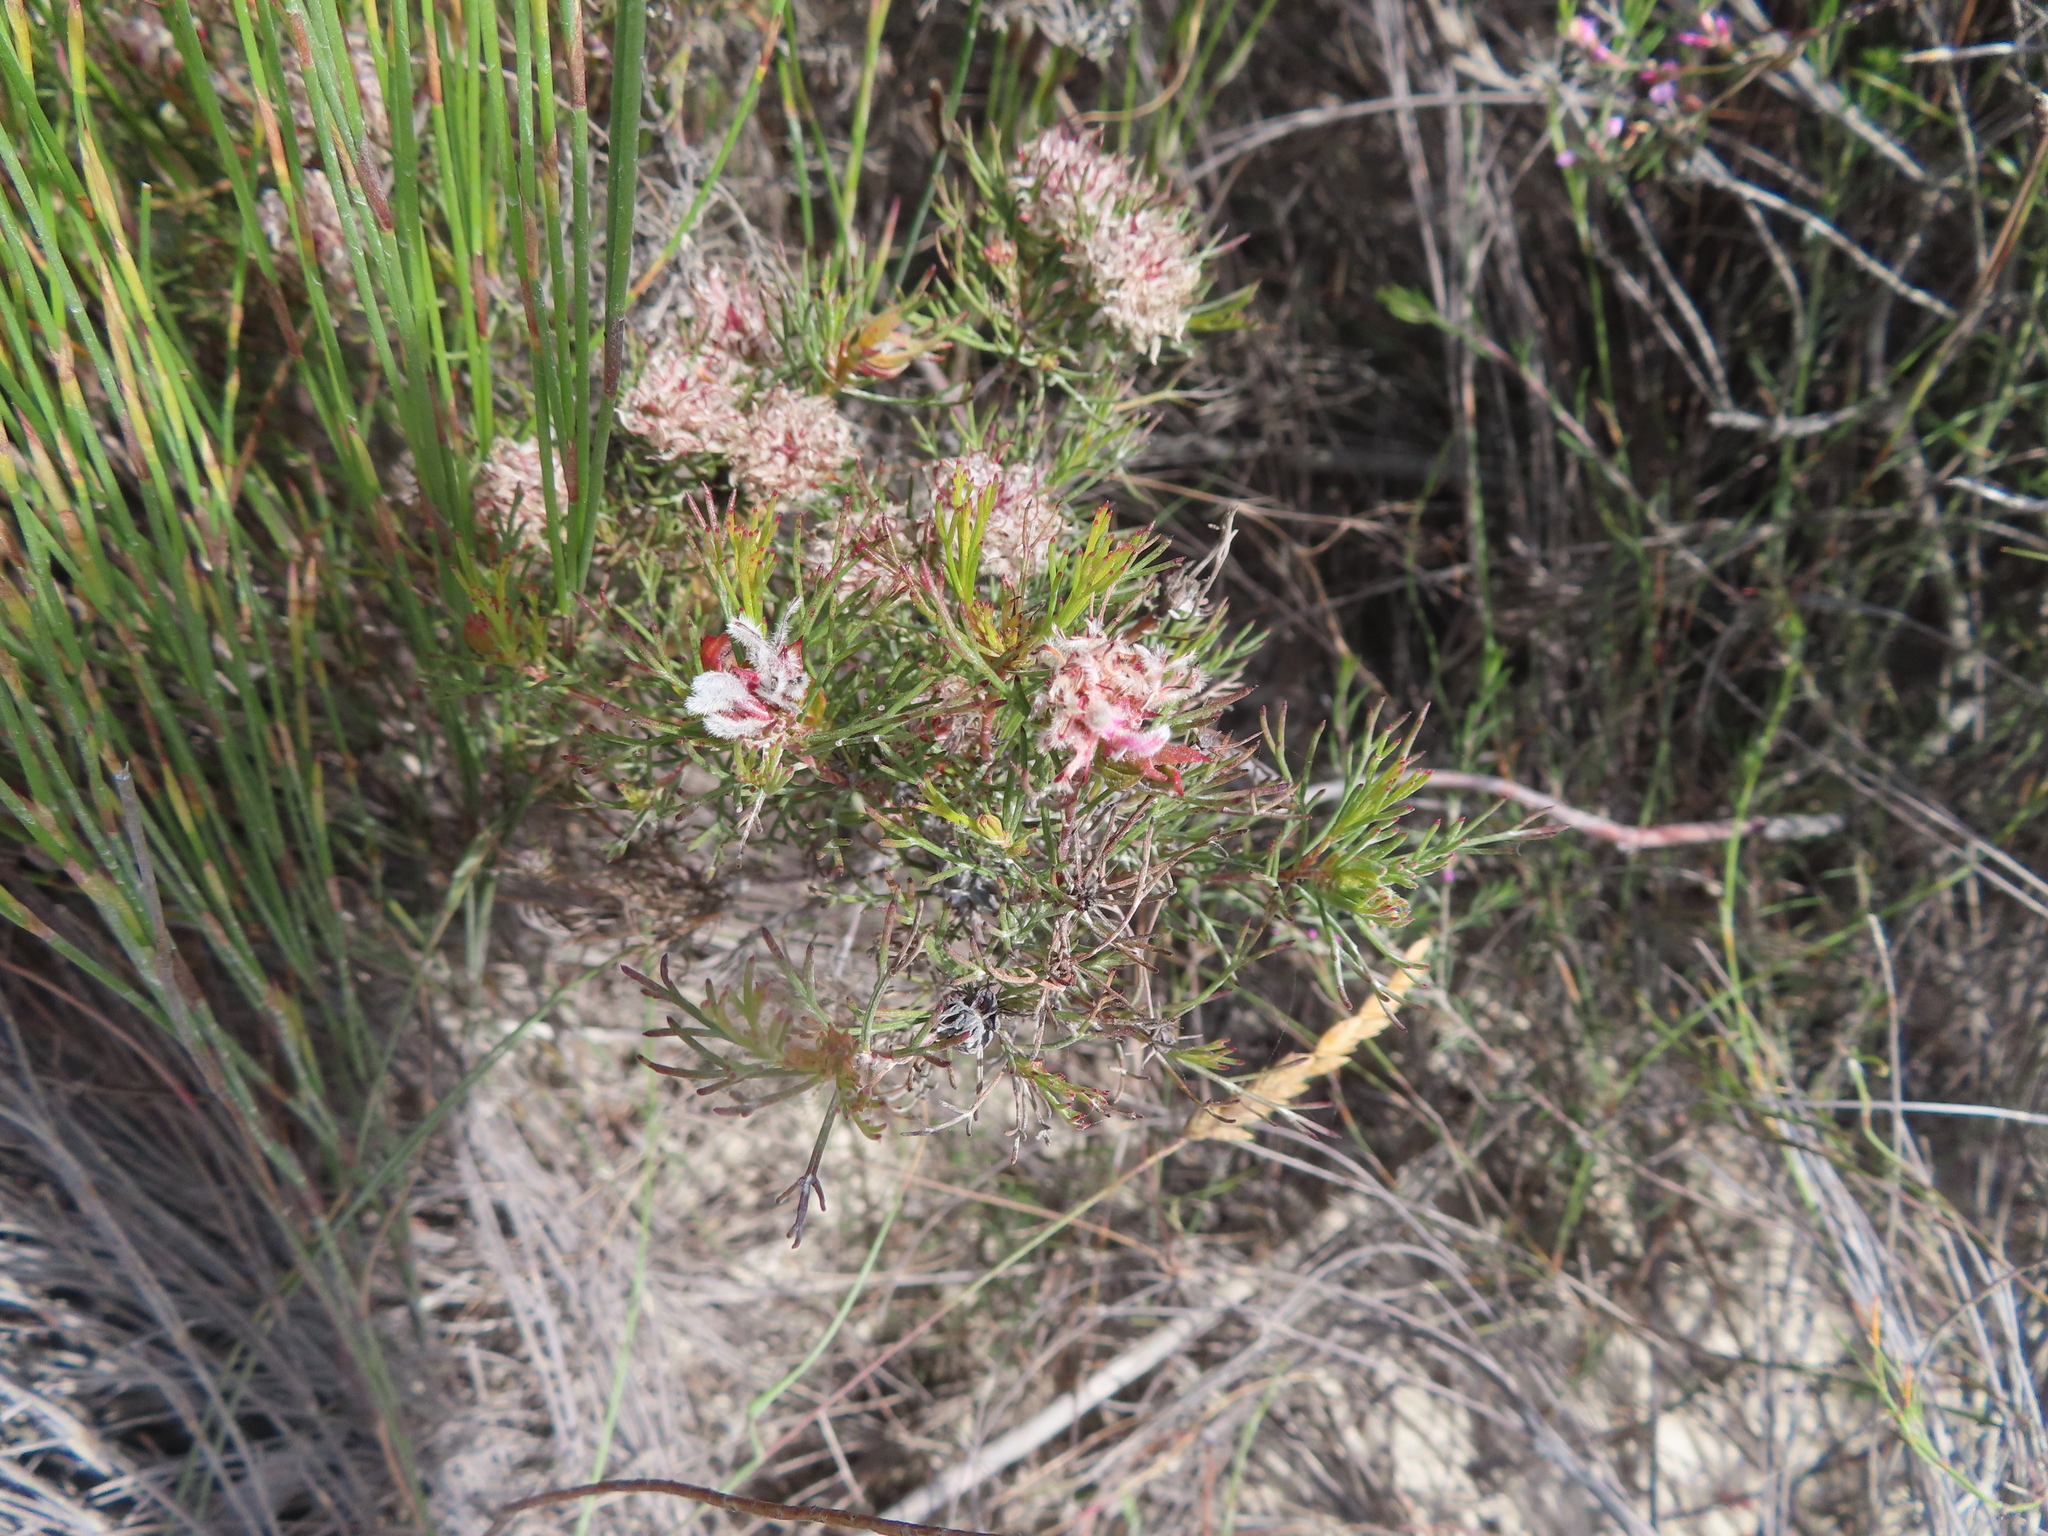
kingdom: Plantae
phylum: Tracheophyta
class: Magnoliopsida
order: Proteales
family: Proteaceae
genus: Serruria
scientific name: Serruria fasciflora
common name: Common pin spiderhead
